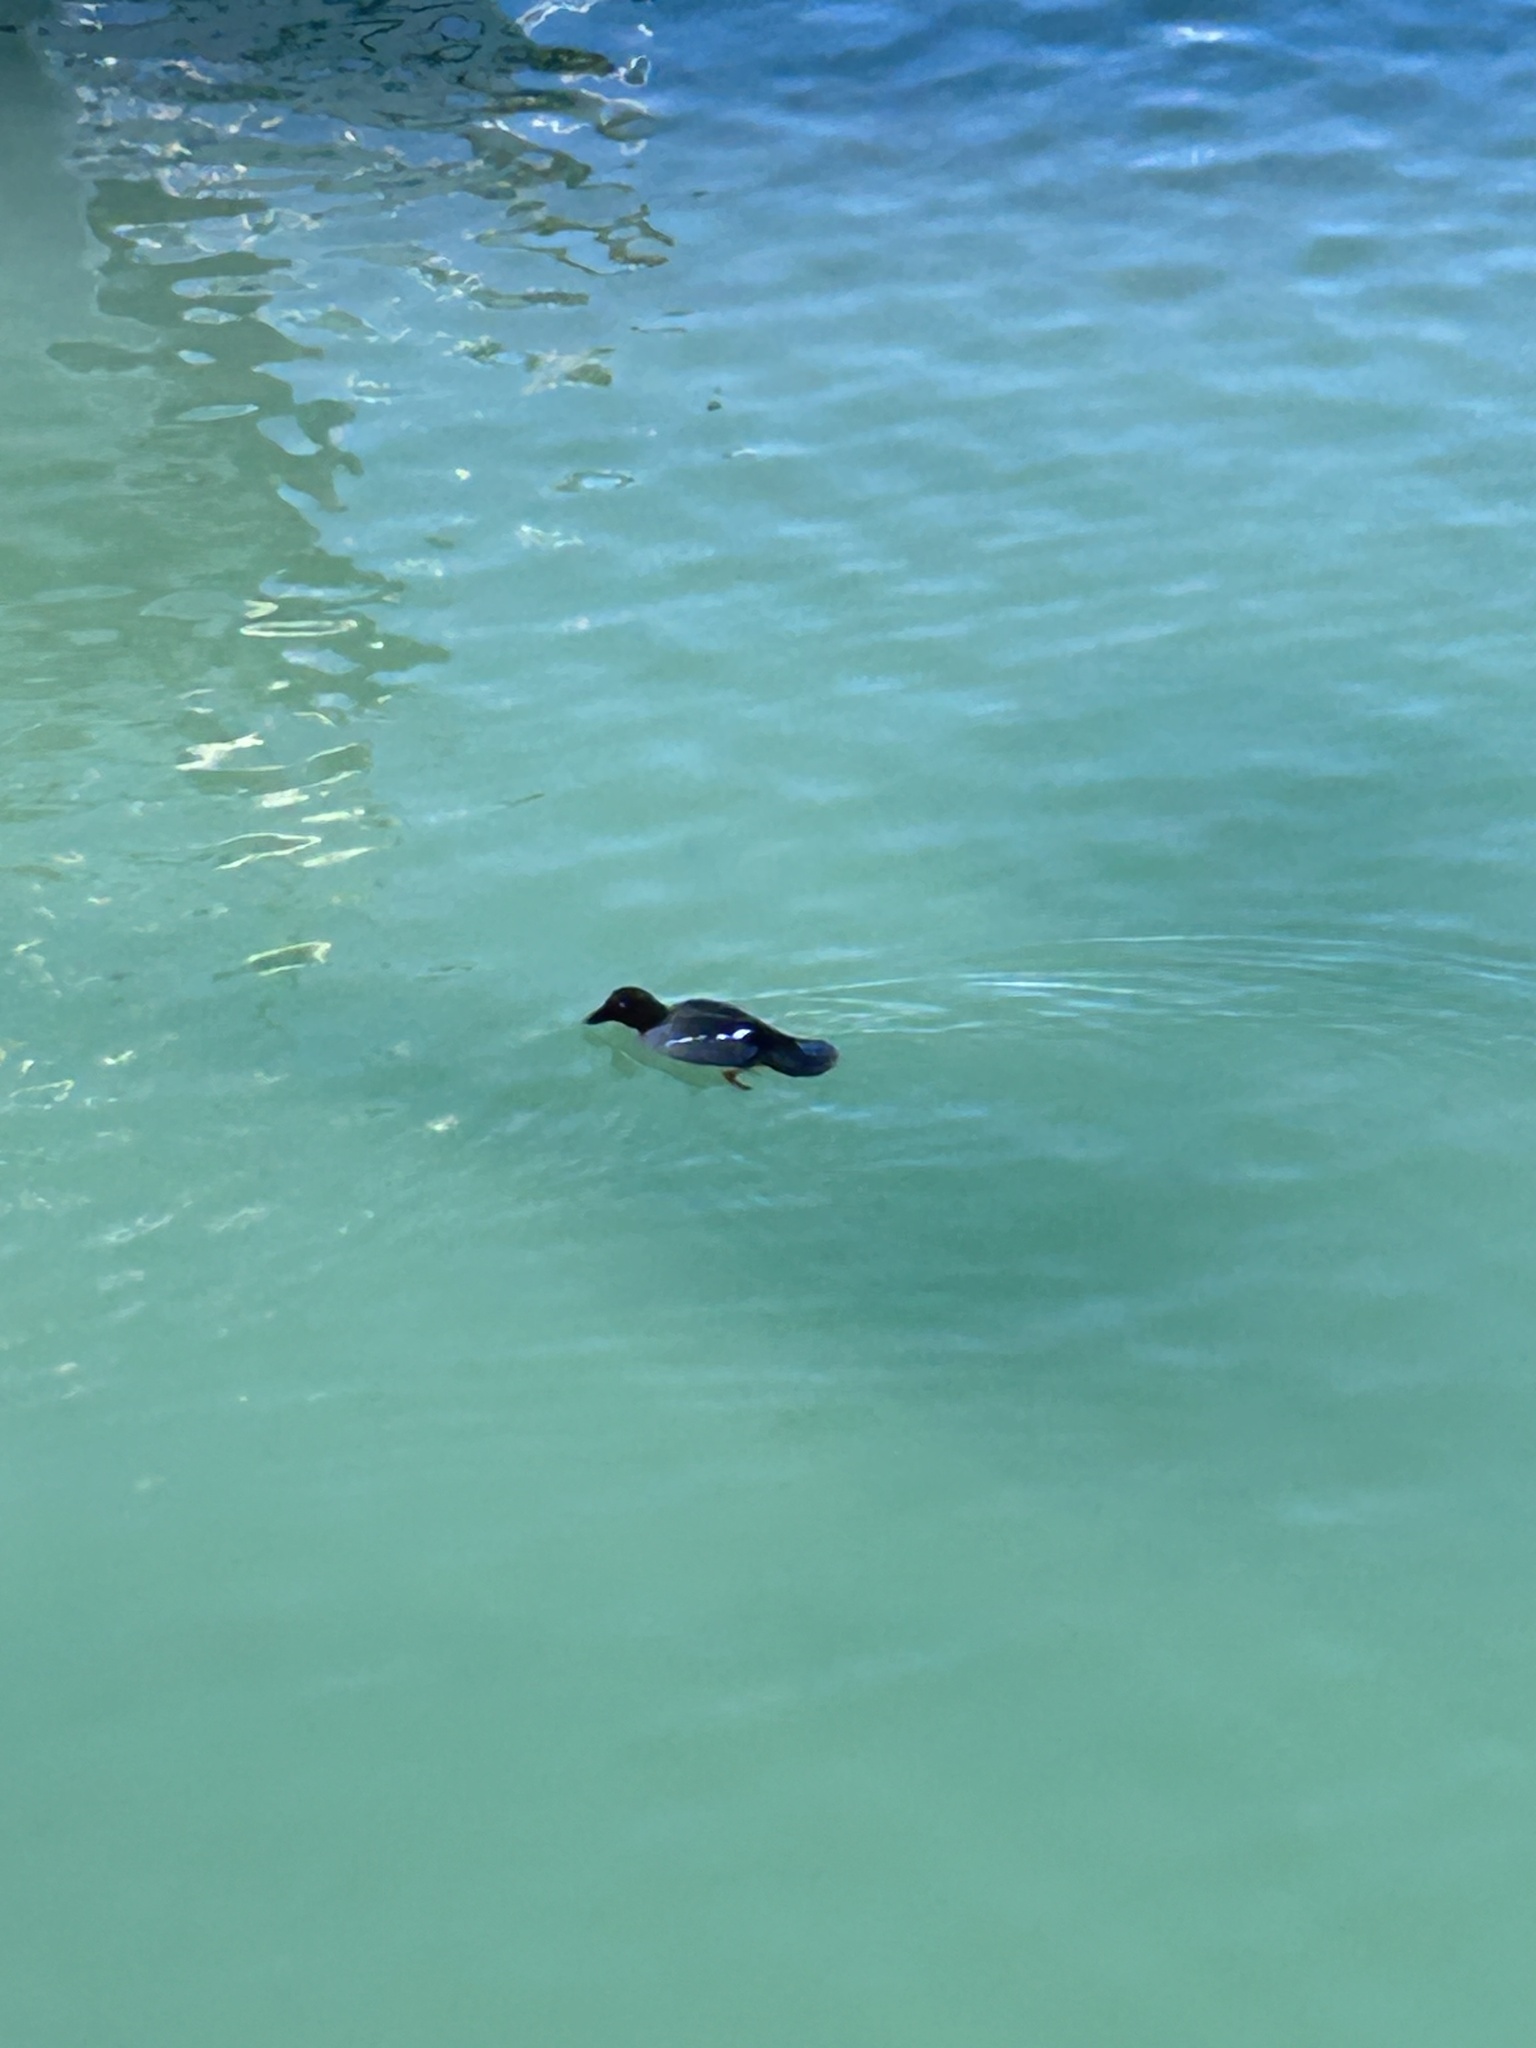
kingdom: Animalia
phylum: Chordata
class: Aves
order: Anseriformes
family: Anatidae
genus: Bucephala
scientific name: Bucephala clangula
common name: Common goldeneye
